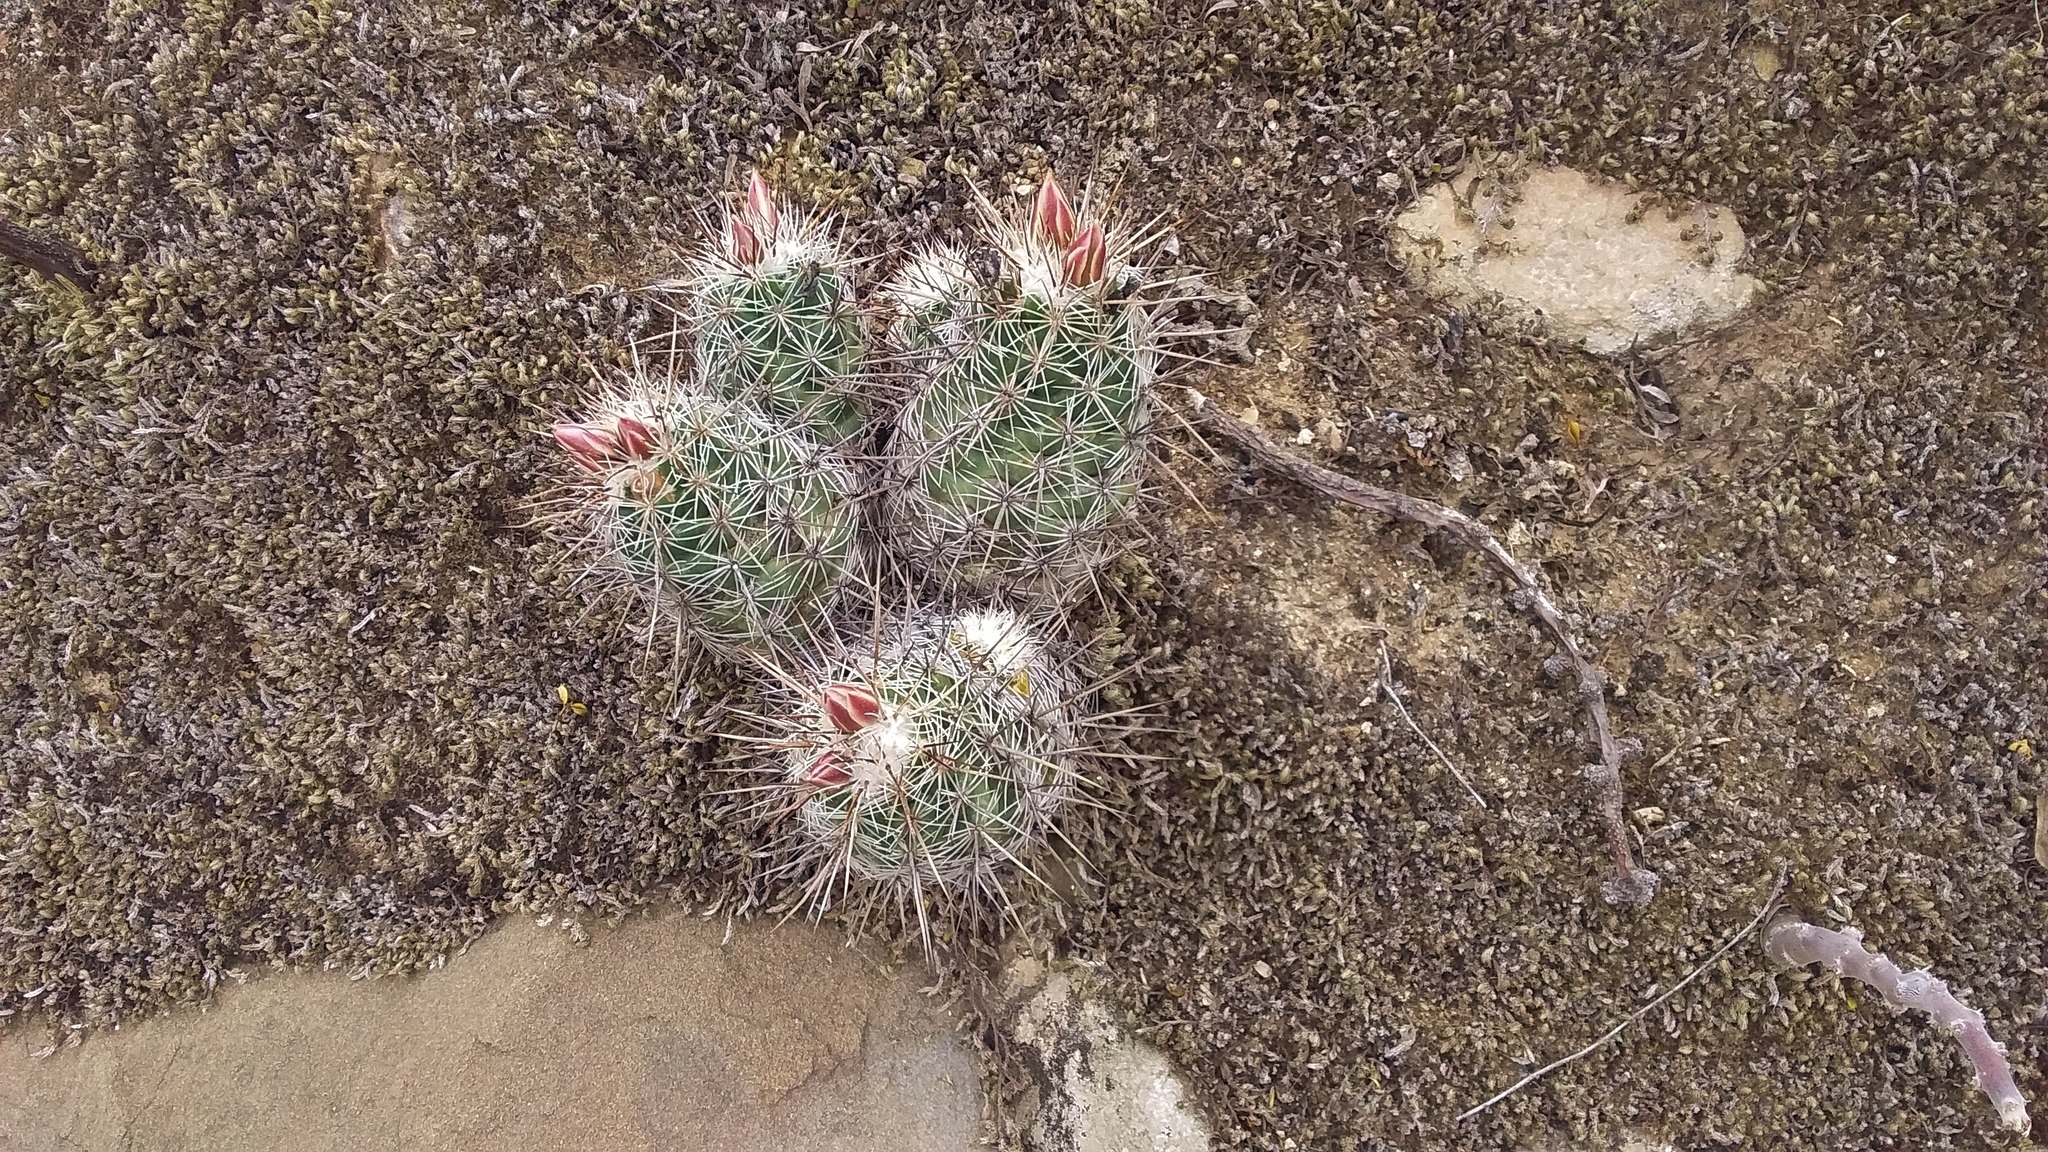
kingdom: Plantae
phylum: Tracheophyta
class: Magnoliopsida
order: Caryophyllales
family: Cactaceae
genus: Cochemiea
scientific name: Cochemiea conoidea
